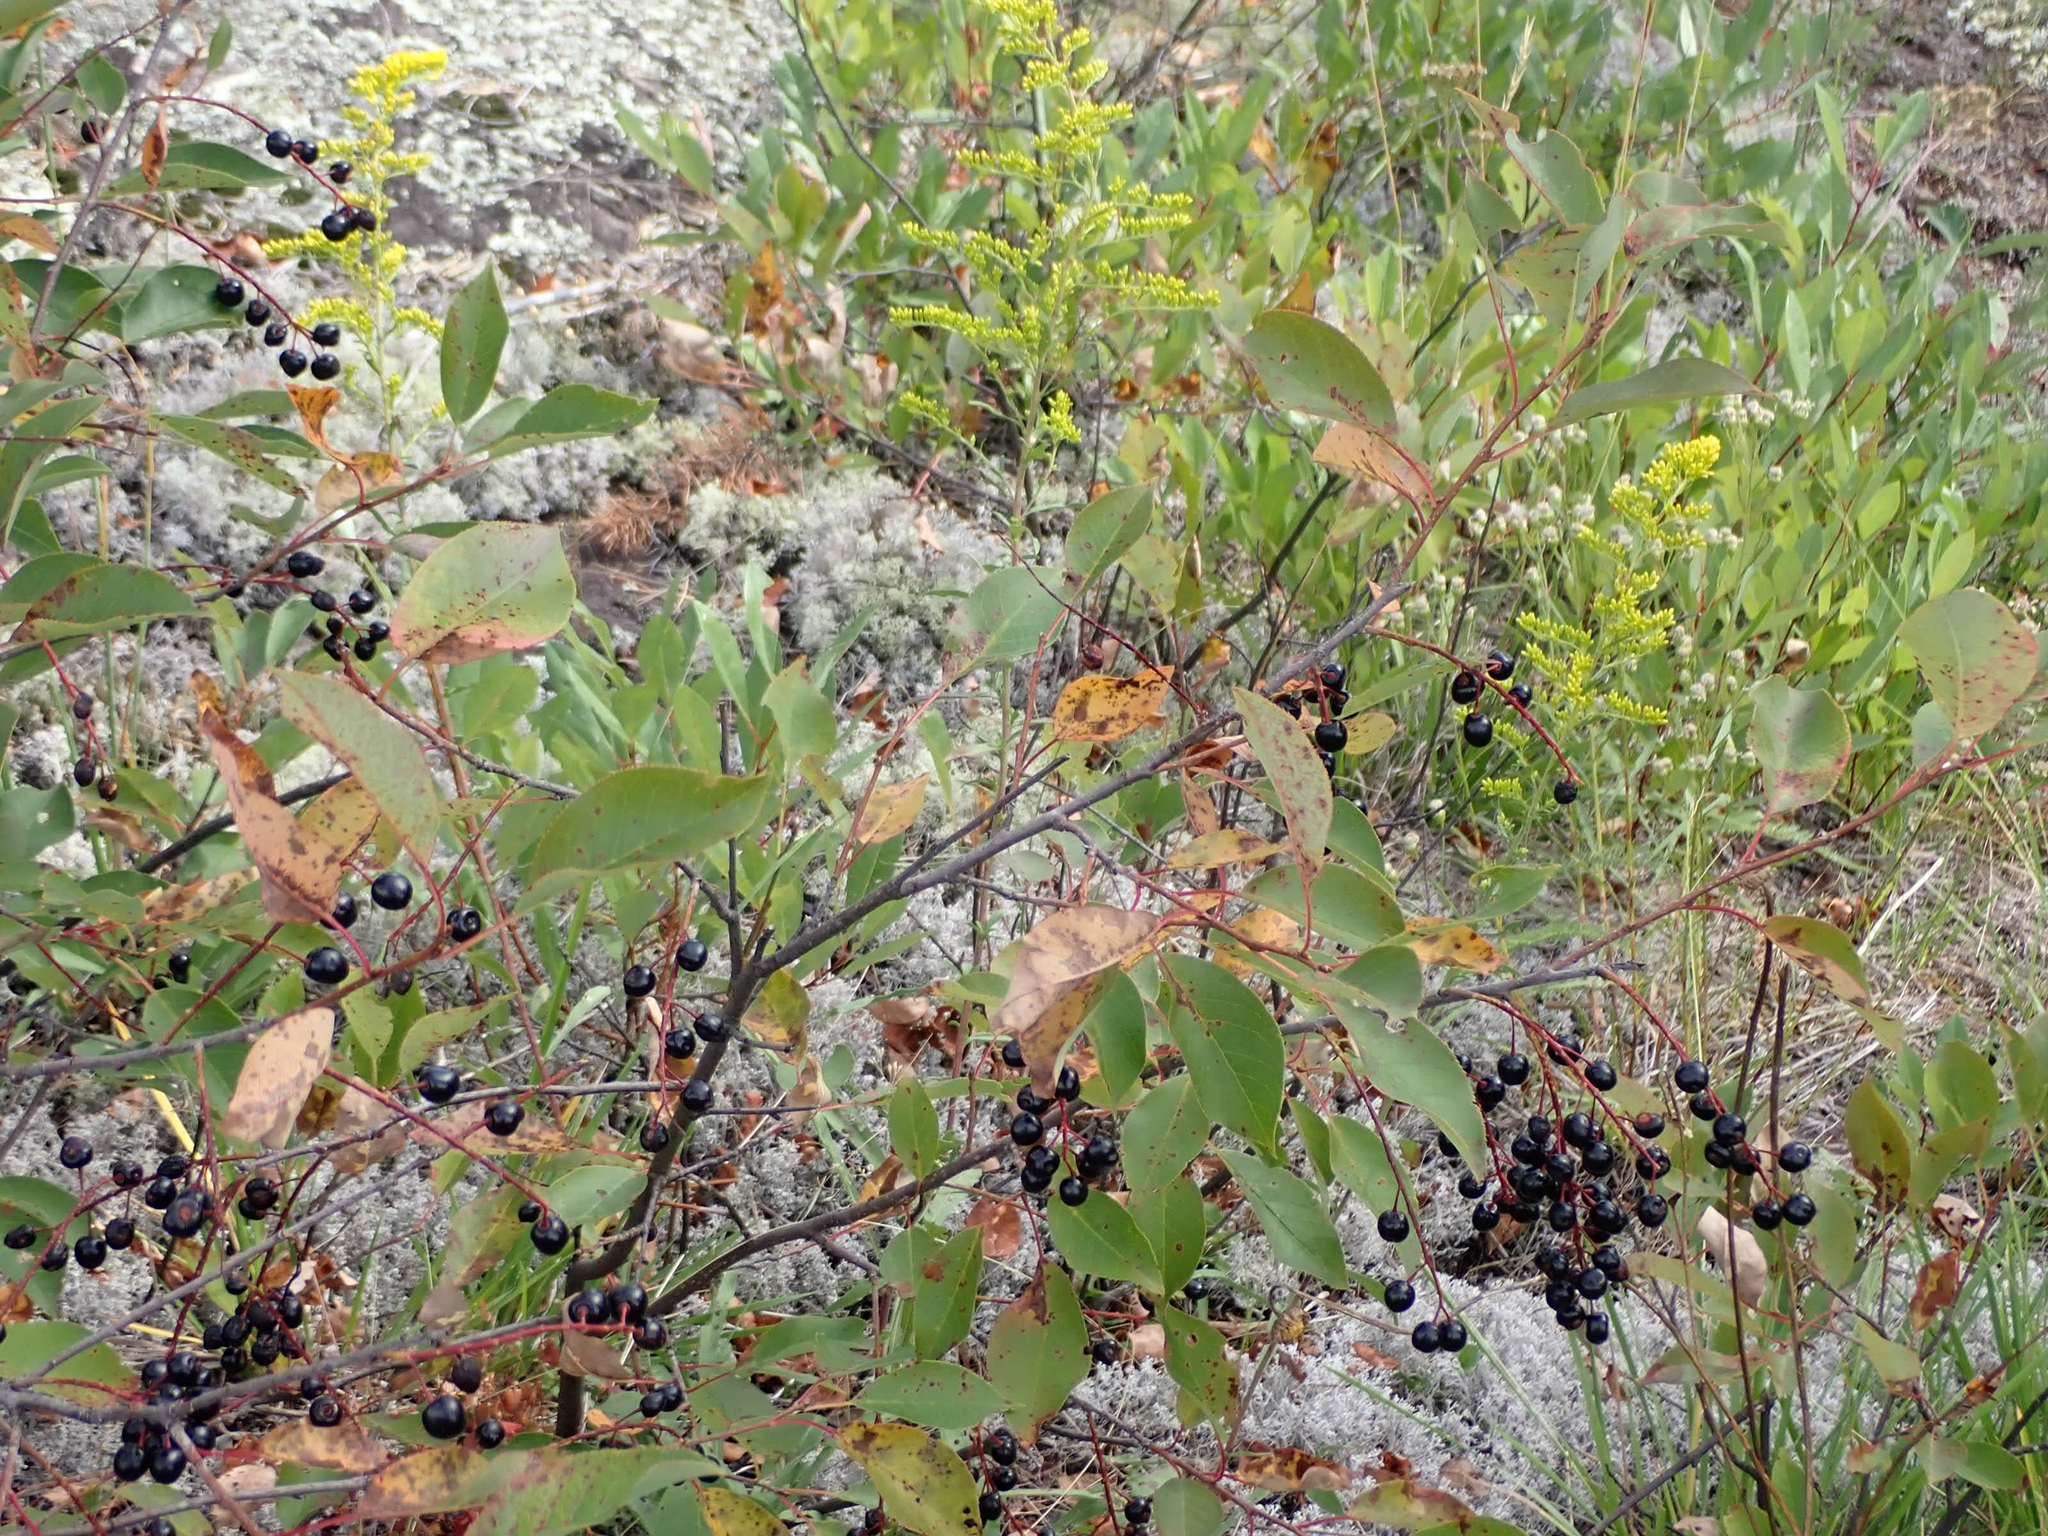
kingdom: Plantae
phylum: Tracheophyta
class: Magnoliopsida
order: Rosales
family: Rosaceae
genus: Prunus
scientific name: Prunus virginiana
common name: Chokecherry
